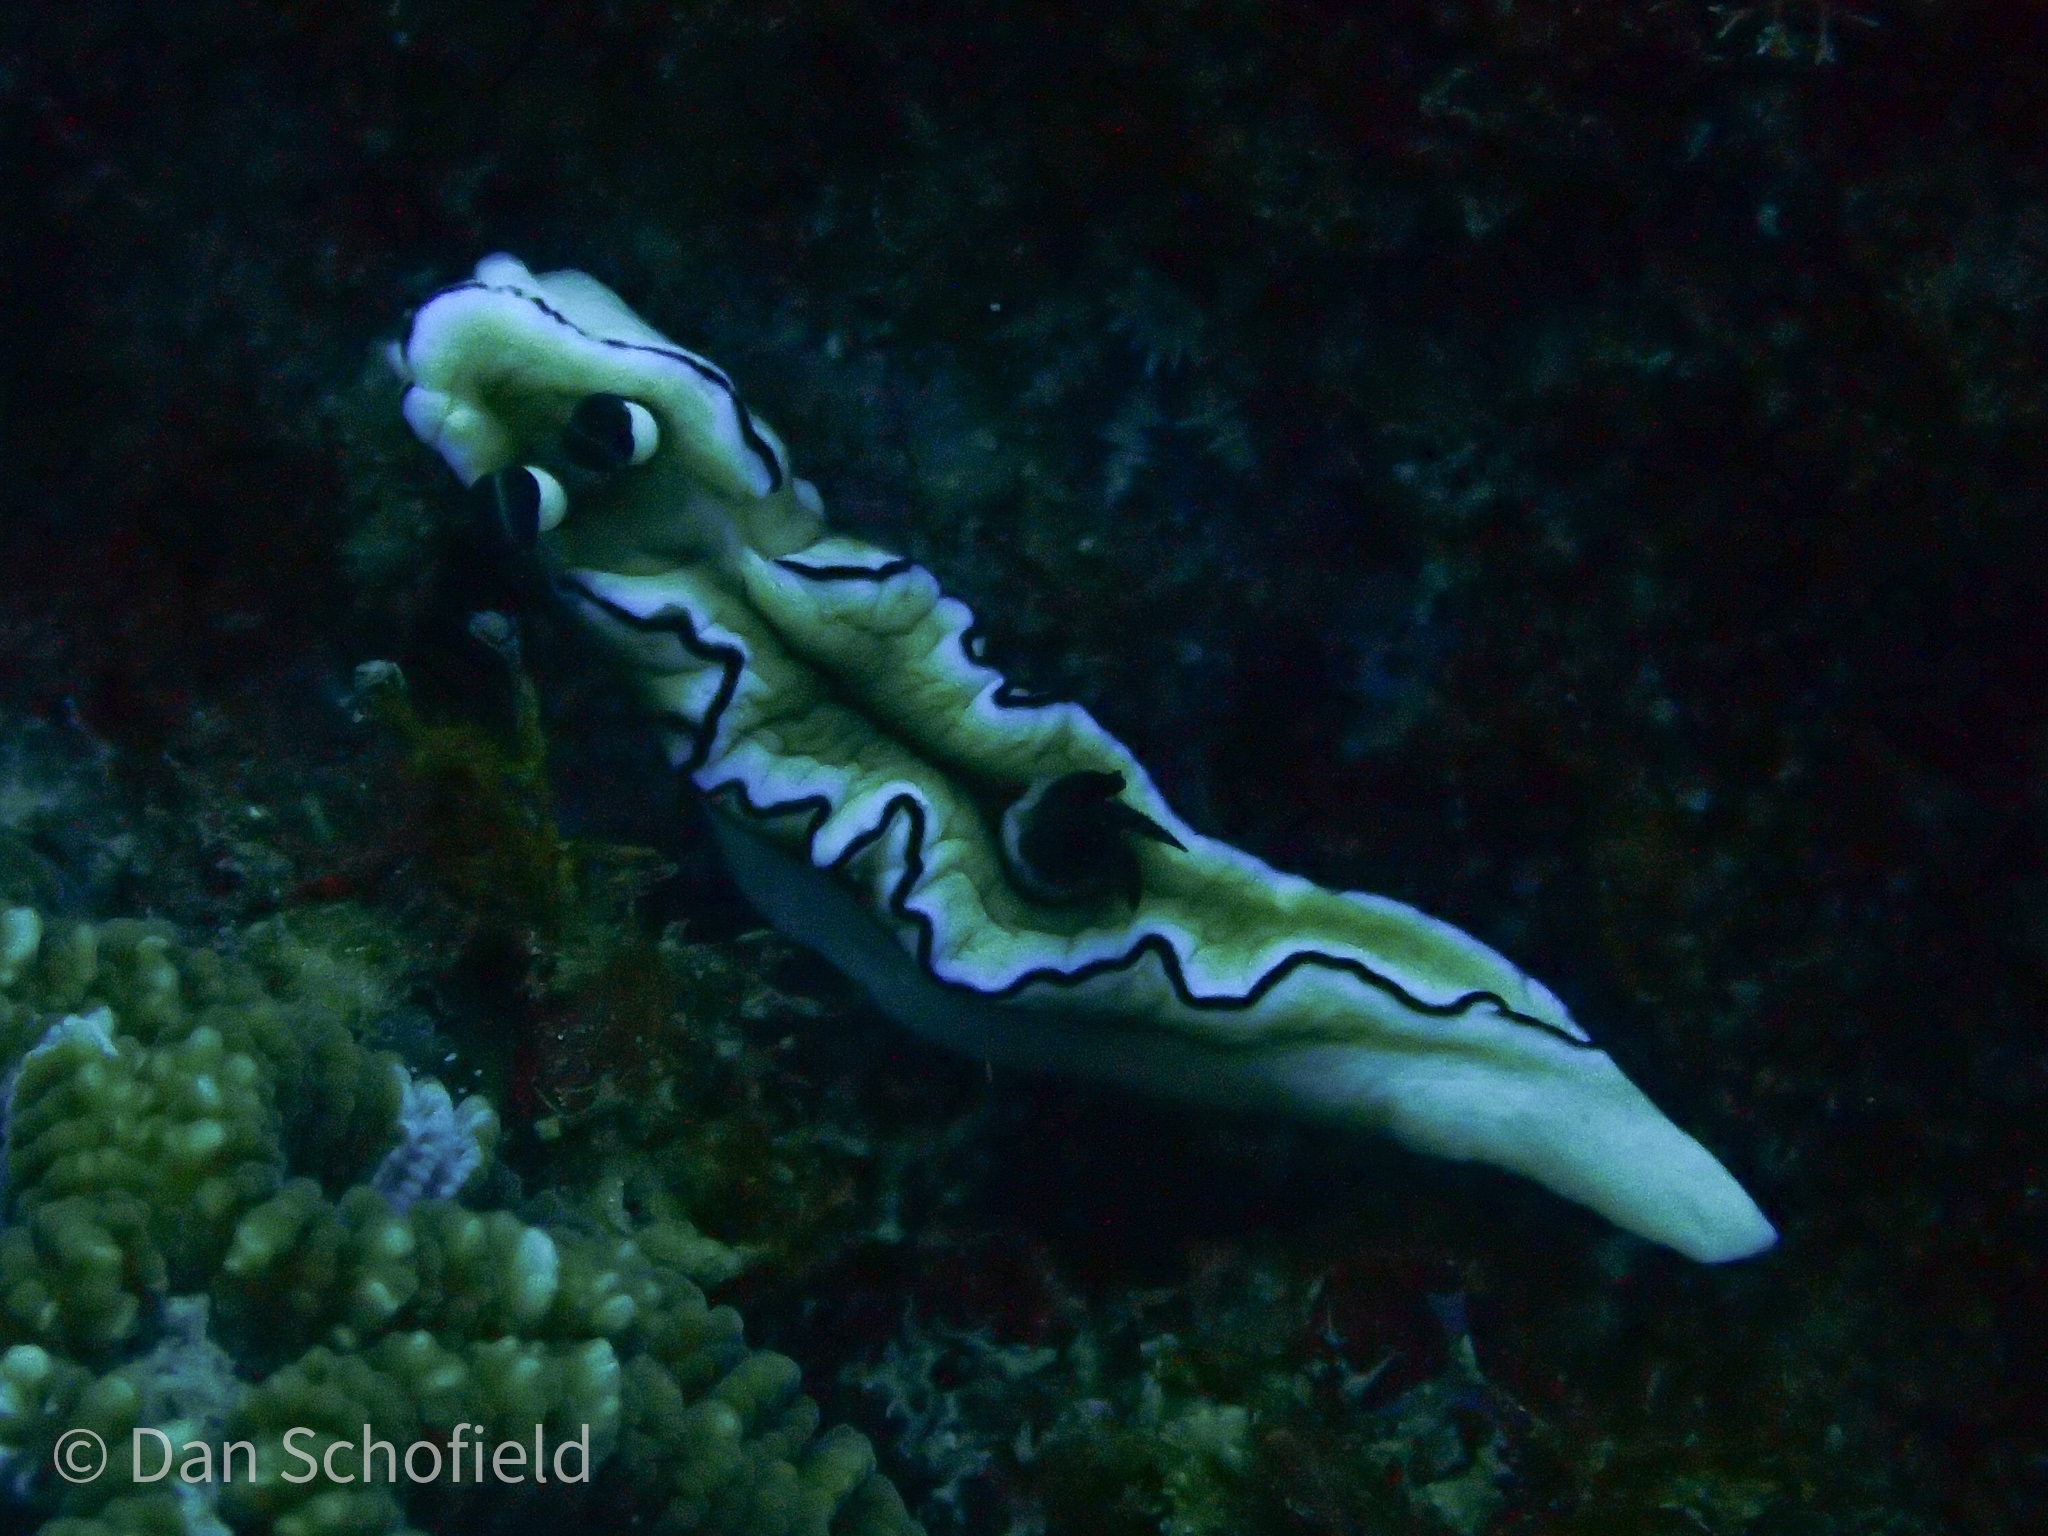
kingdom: Animalia
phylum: Mollusca
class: Gastropoda
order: Nudibranchia
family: Chromodorididae
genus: Doriprismatica
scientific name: Doriprismatica atromarginata
